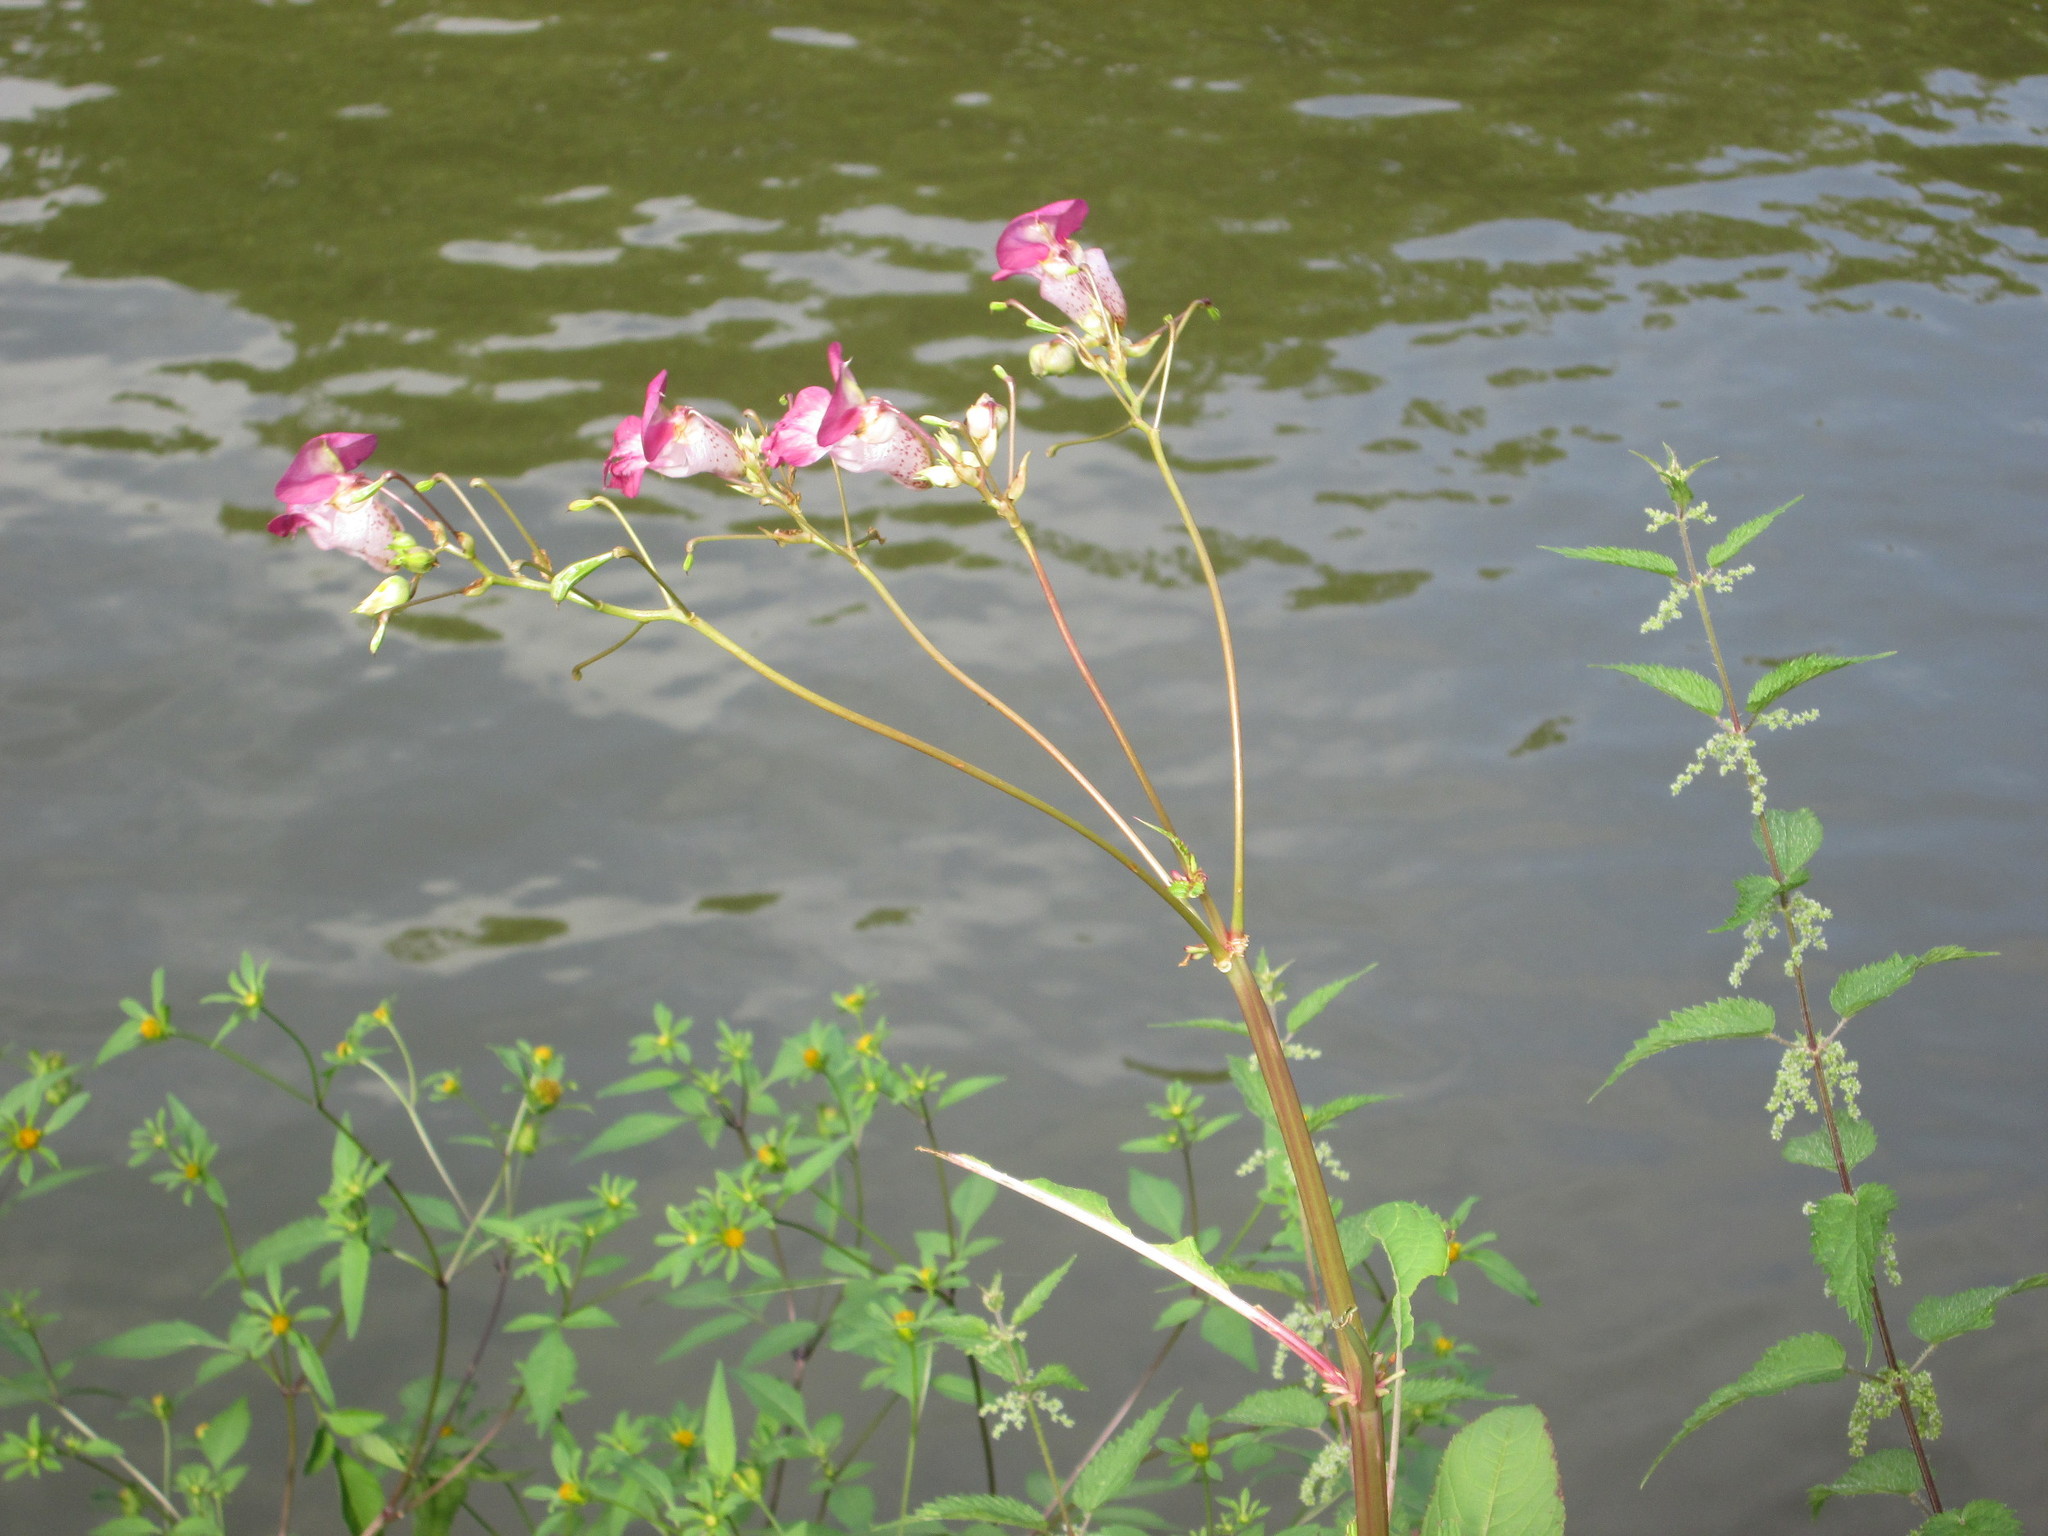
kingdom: Plantae
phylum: Tracheophyta
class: Magnoliopsida
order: Ericales
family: Balsaminaceae
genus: Impatiens
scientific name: Impatiens glandulifera
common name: Himalayan balsam
